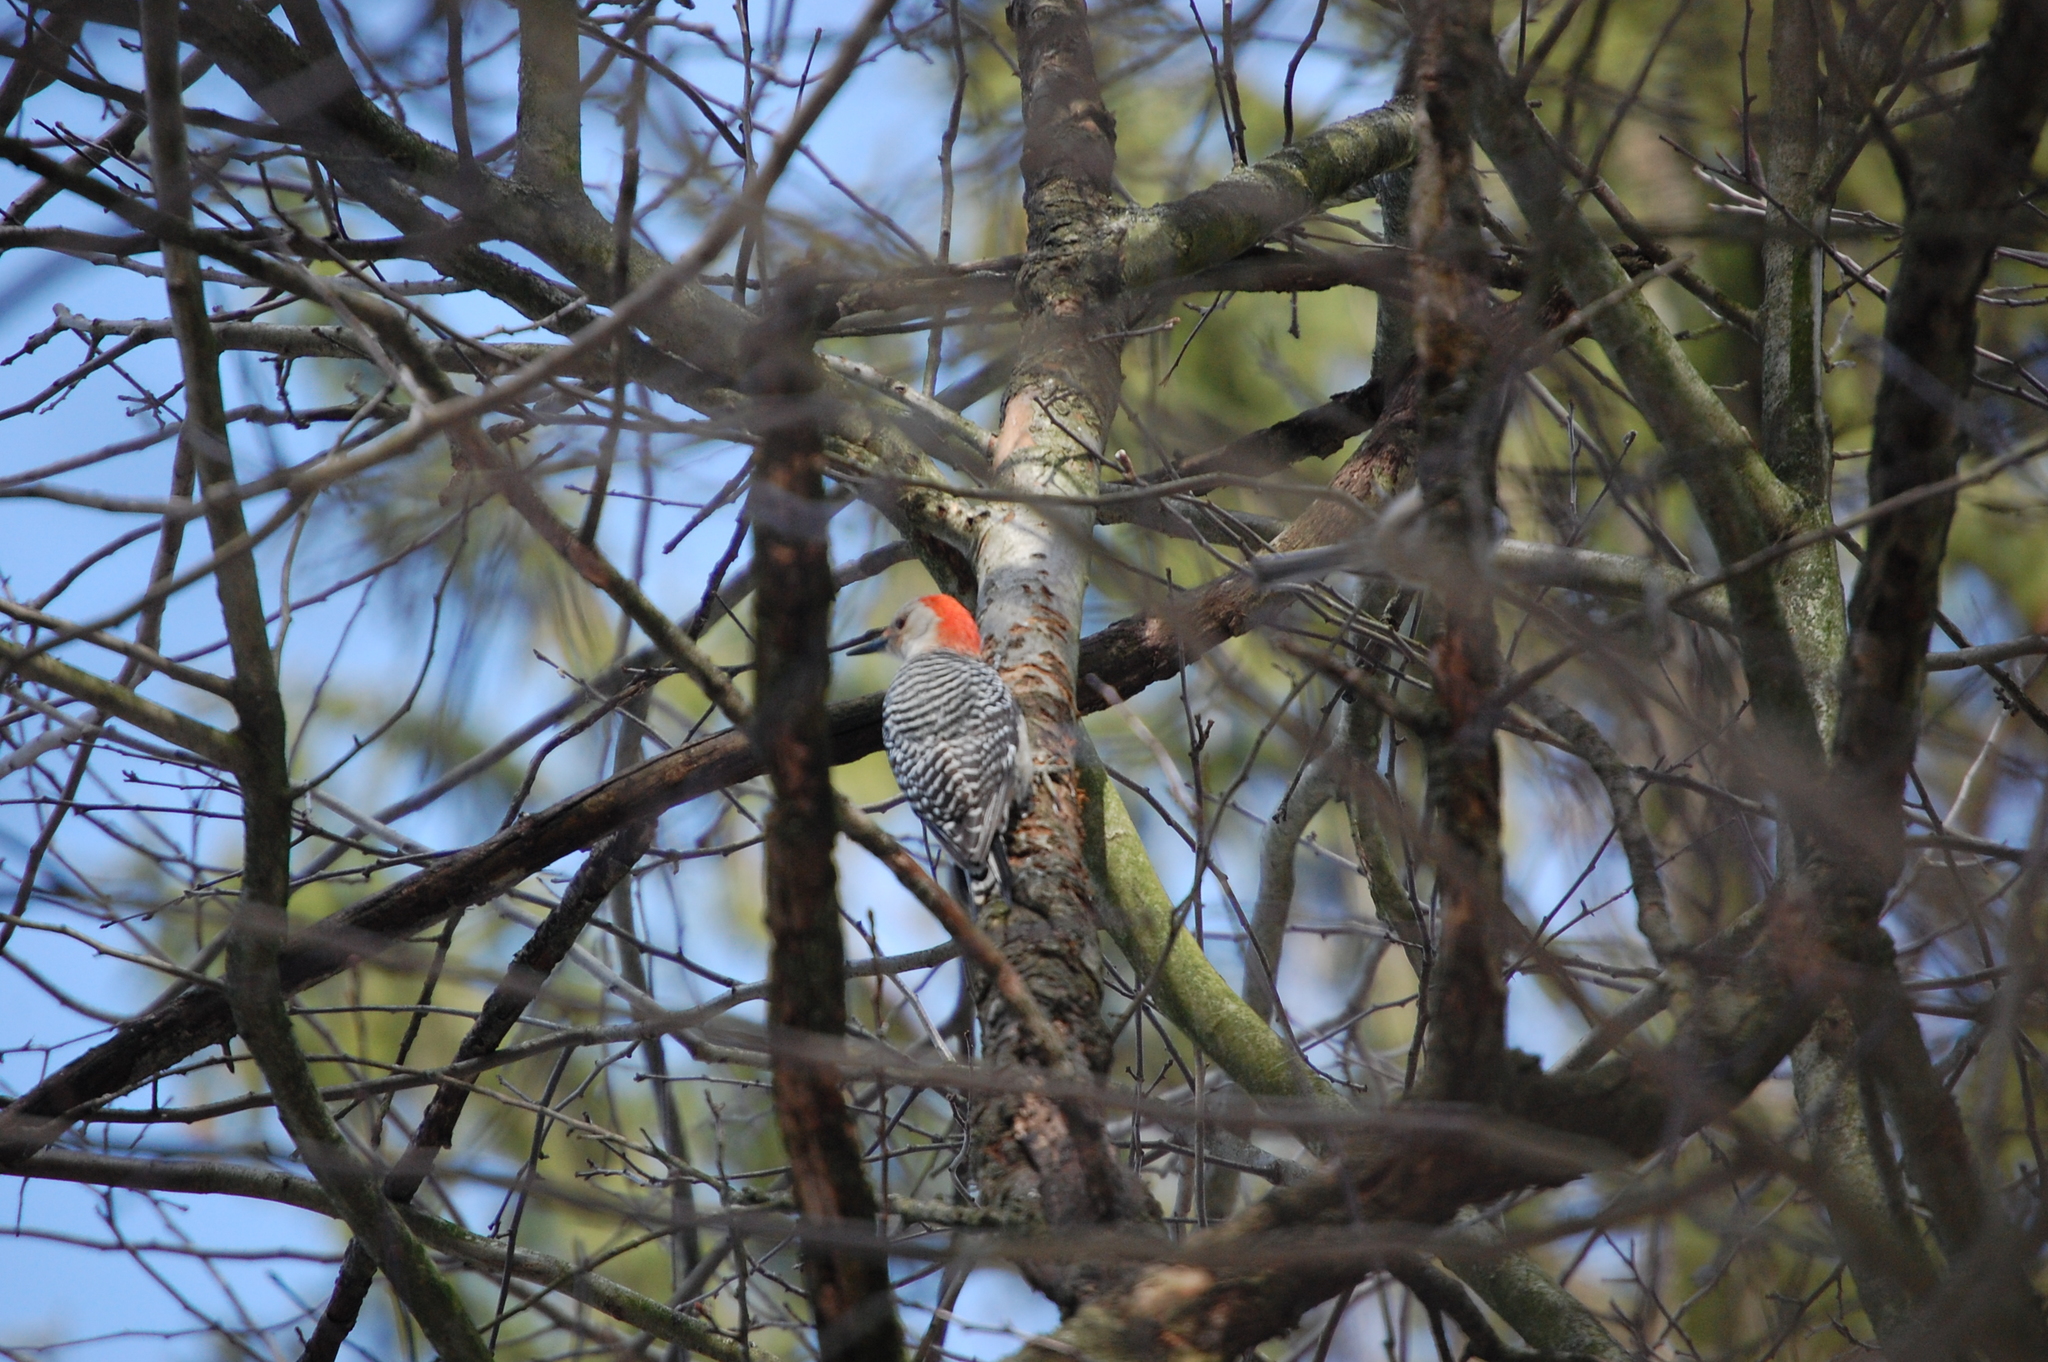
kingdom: Animalia
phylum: Chordata
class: Aves
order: Piciformes
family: Picidae
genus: Melanerpes
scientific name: Melanerpes carolinus
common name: Red-bellied woodpecker
